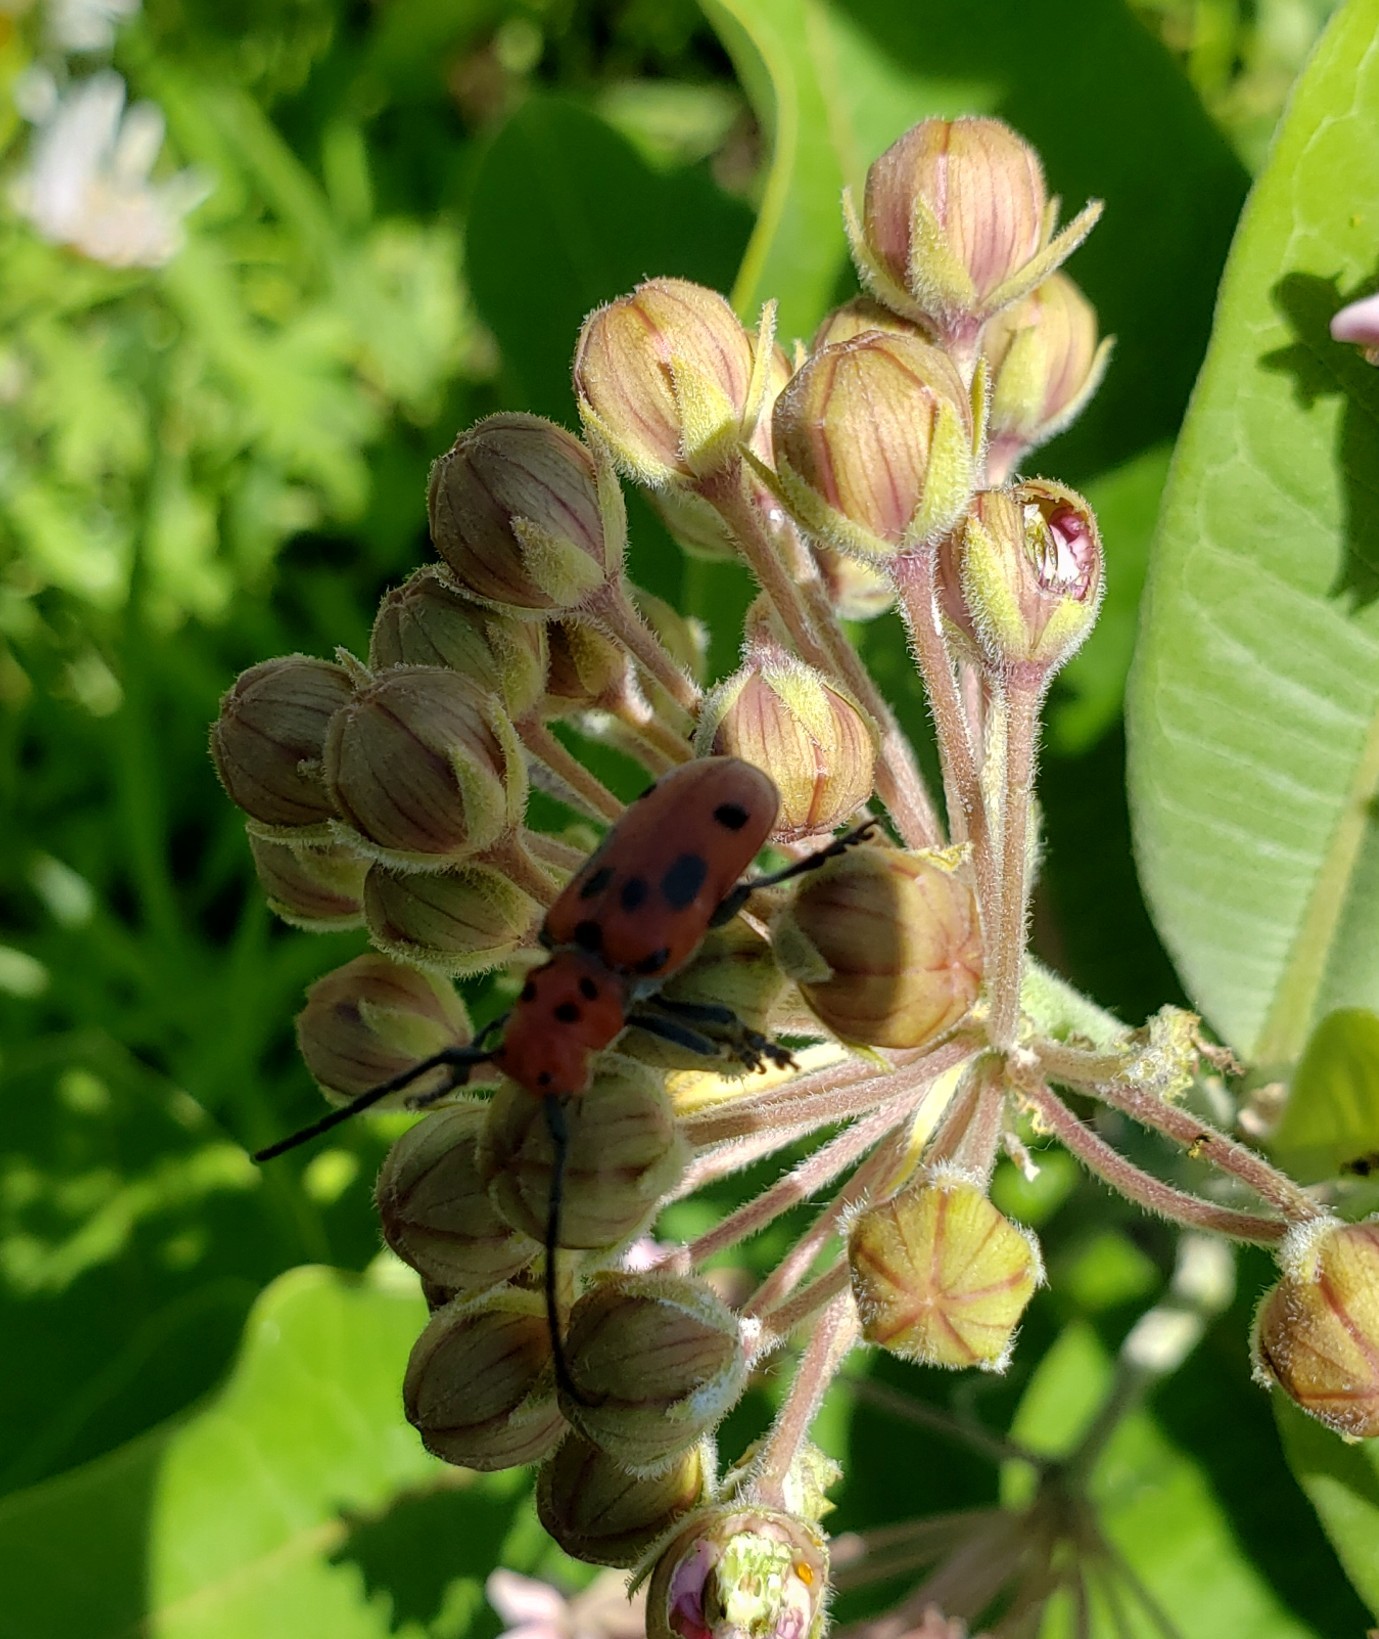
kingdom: Animalia
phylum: Arthropoda
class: Insecta
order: Coleoptera
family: Cerambycidae
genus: Tetraopes
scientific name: Tetraopes tetrophthalmus
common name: Red milkweed beetle
